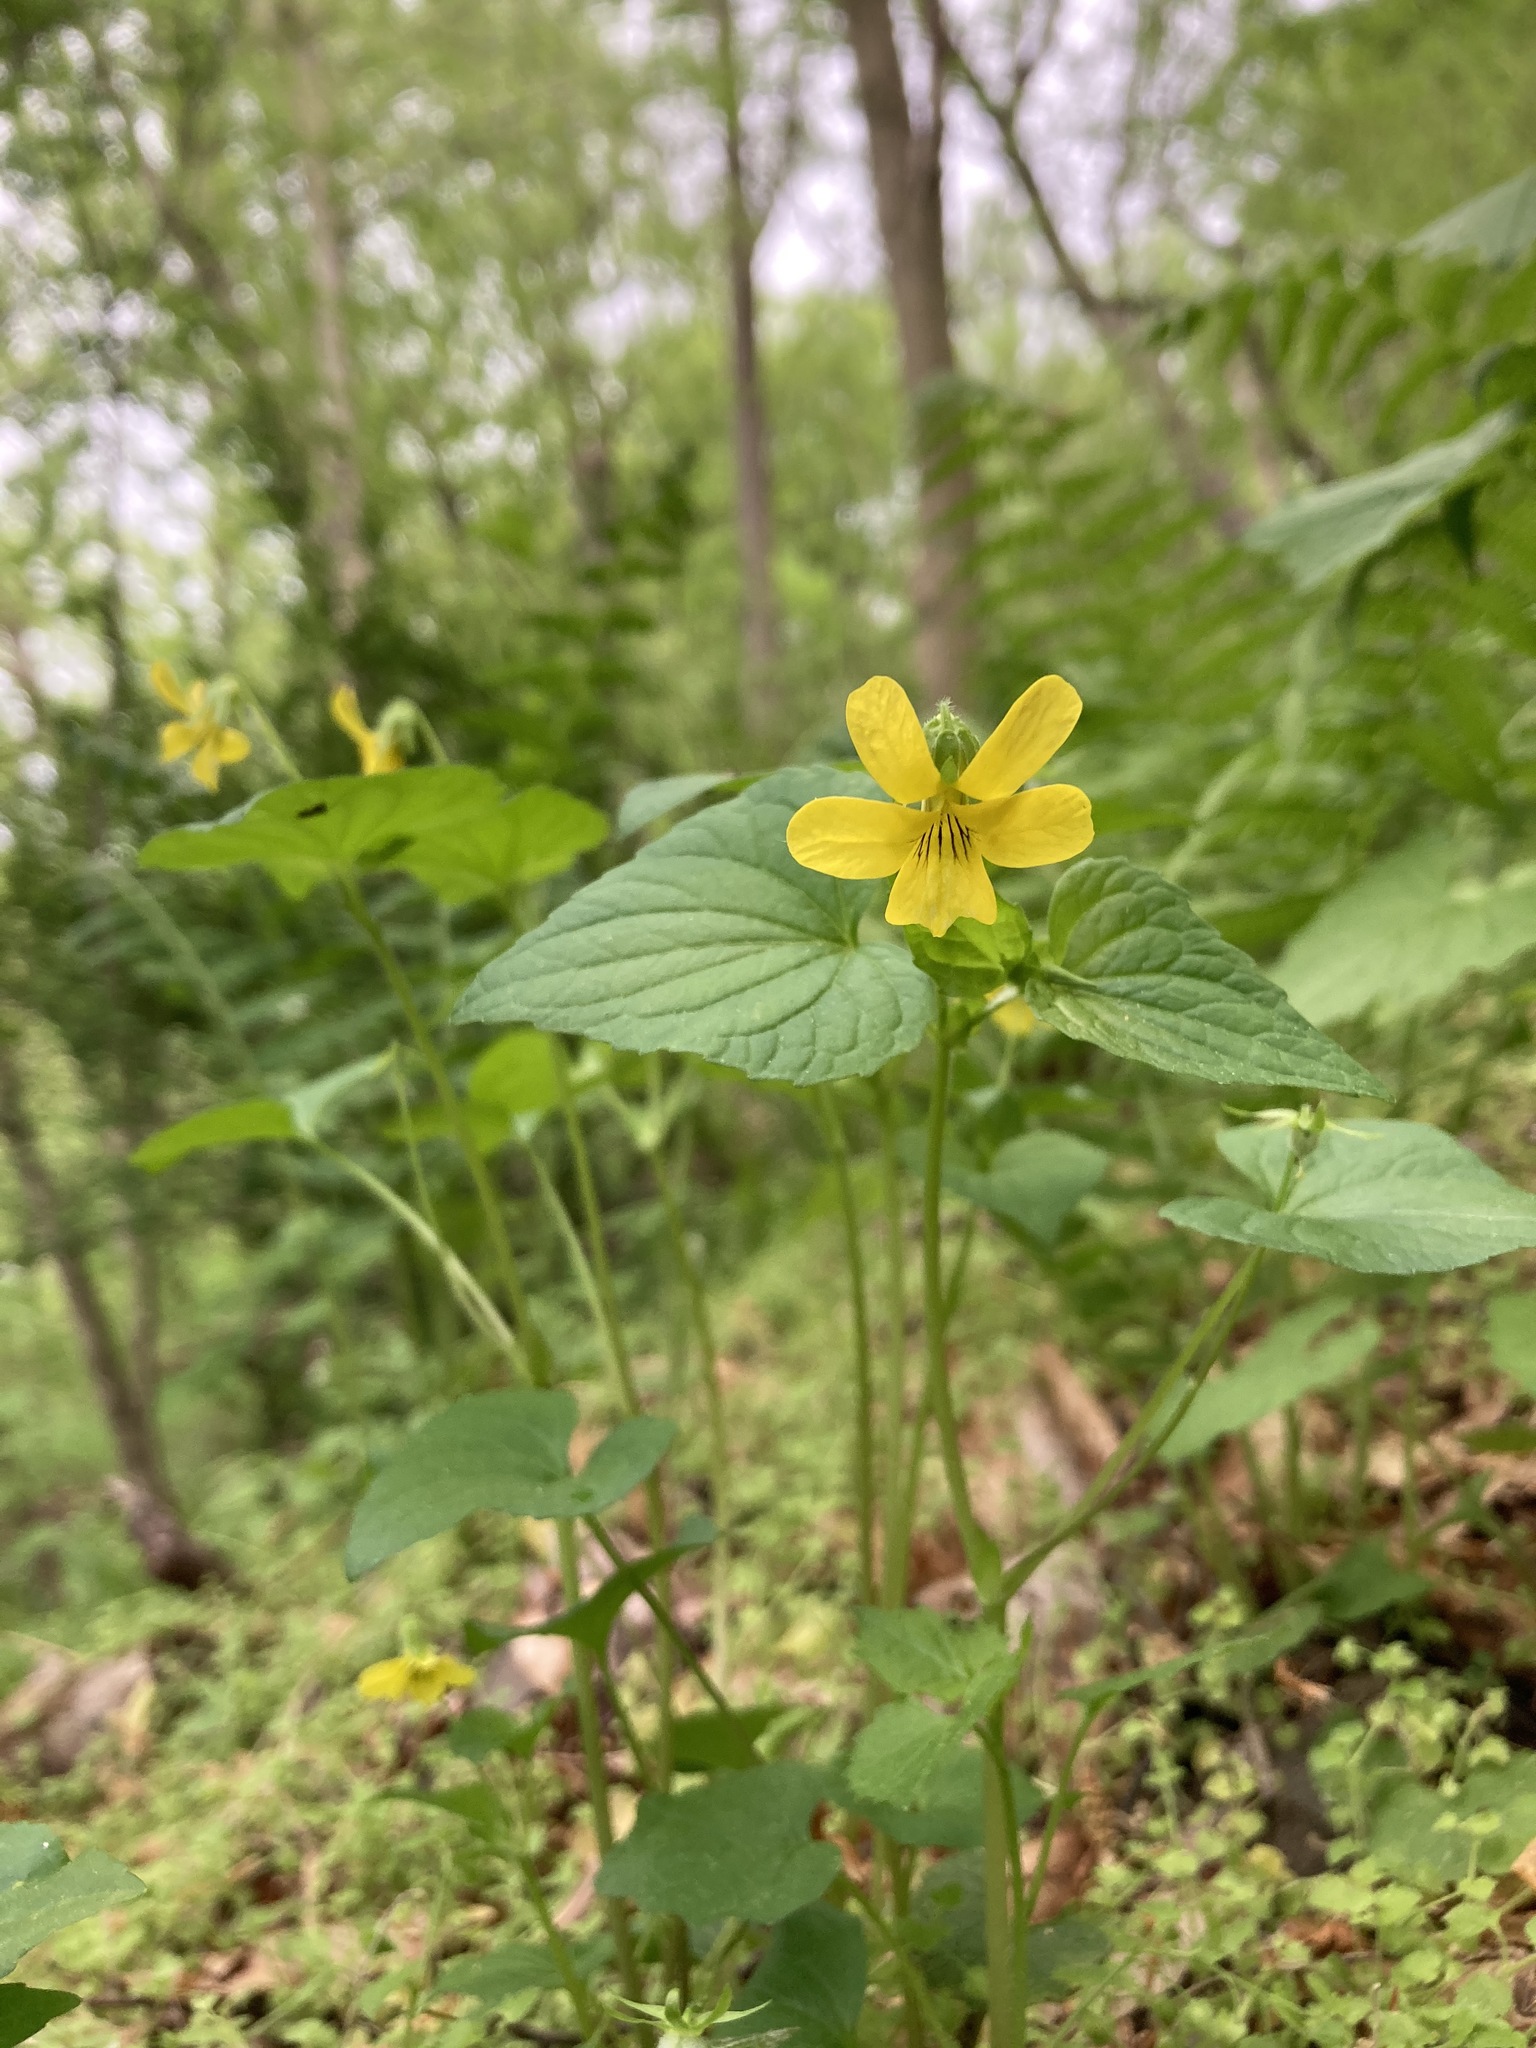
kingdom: Plantae
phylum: Tracheophyta
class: Magnoliopsida
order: Malpighiales
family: Violaceae
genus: Viola
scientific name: Viola eriocarpa
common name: Smooth yellow violet
